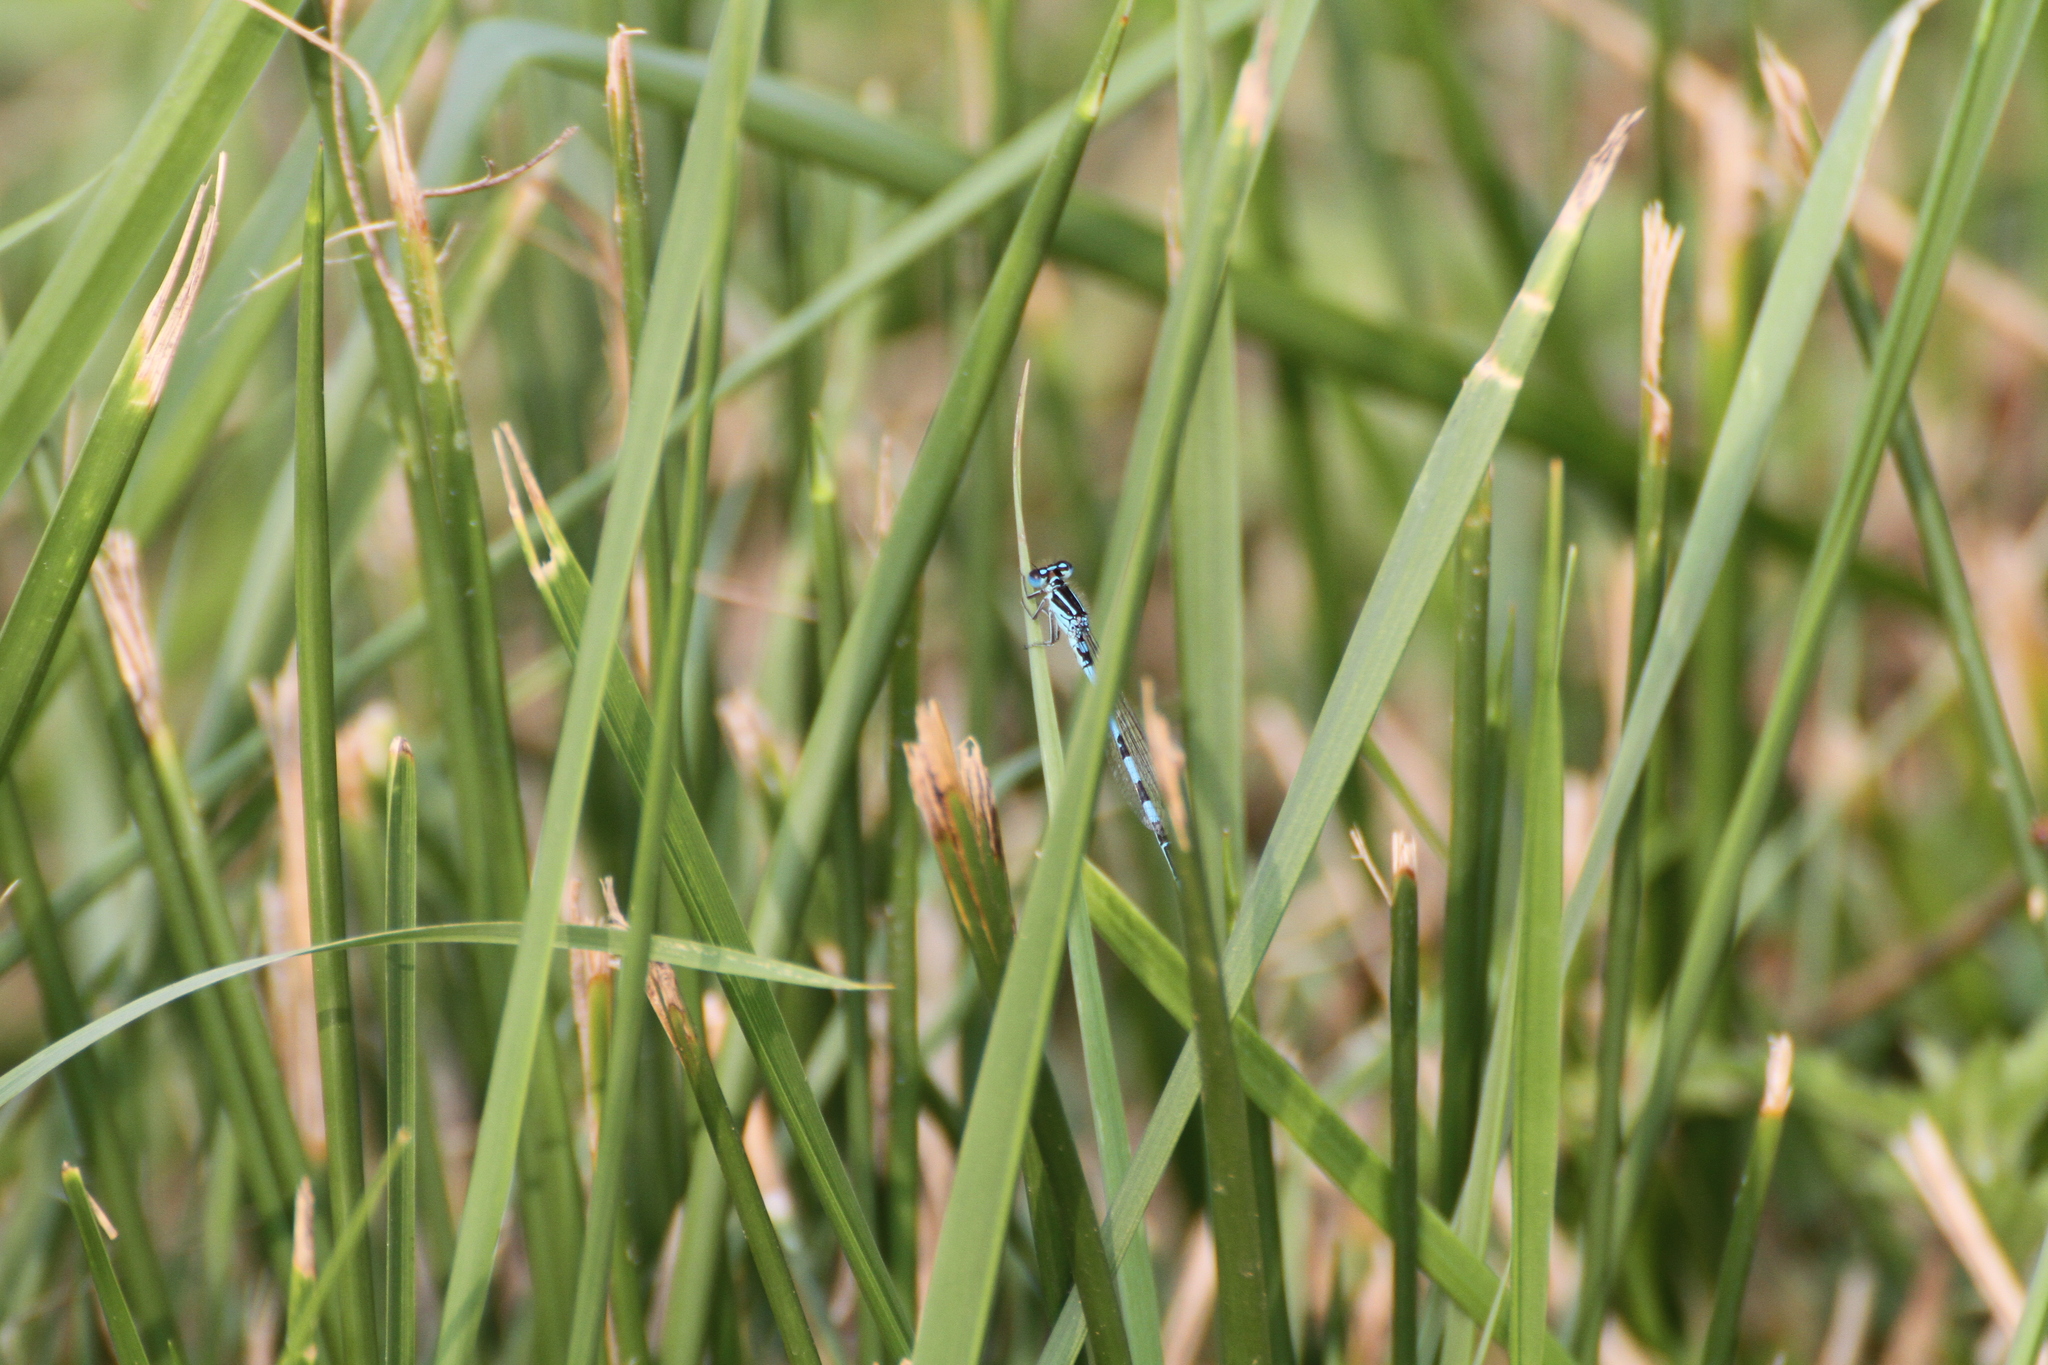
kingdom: Animalia
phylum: Arthropoda
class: Insecta
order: Odonata
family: Coenagrionidae
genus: Coenagrion
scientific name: Coenagrion mercuriale
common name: Southern damselfly
